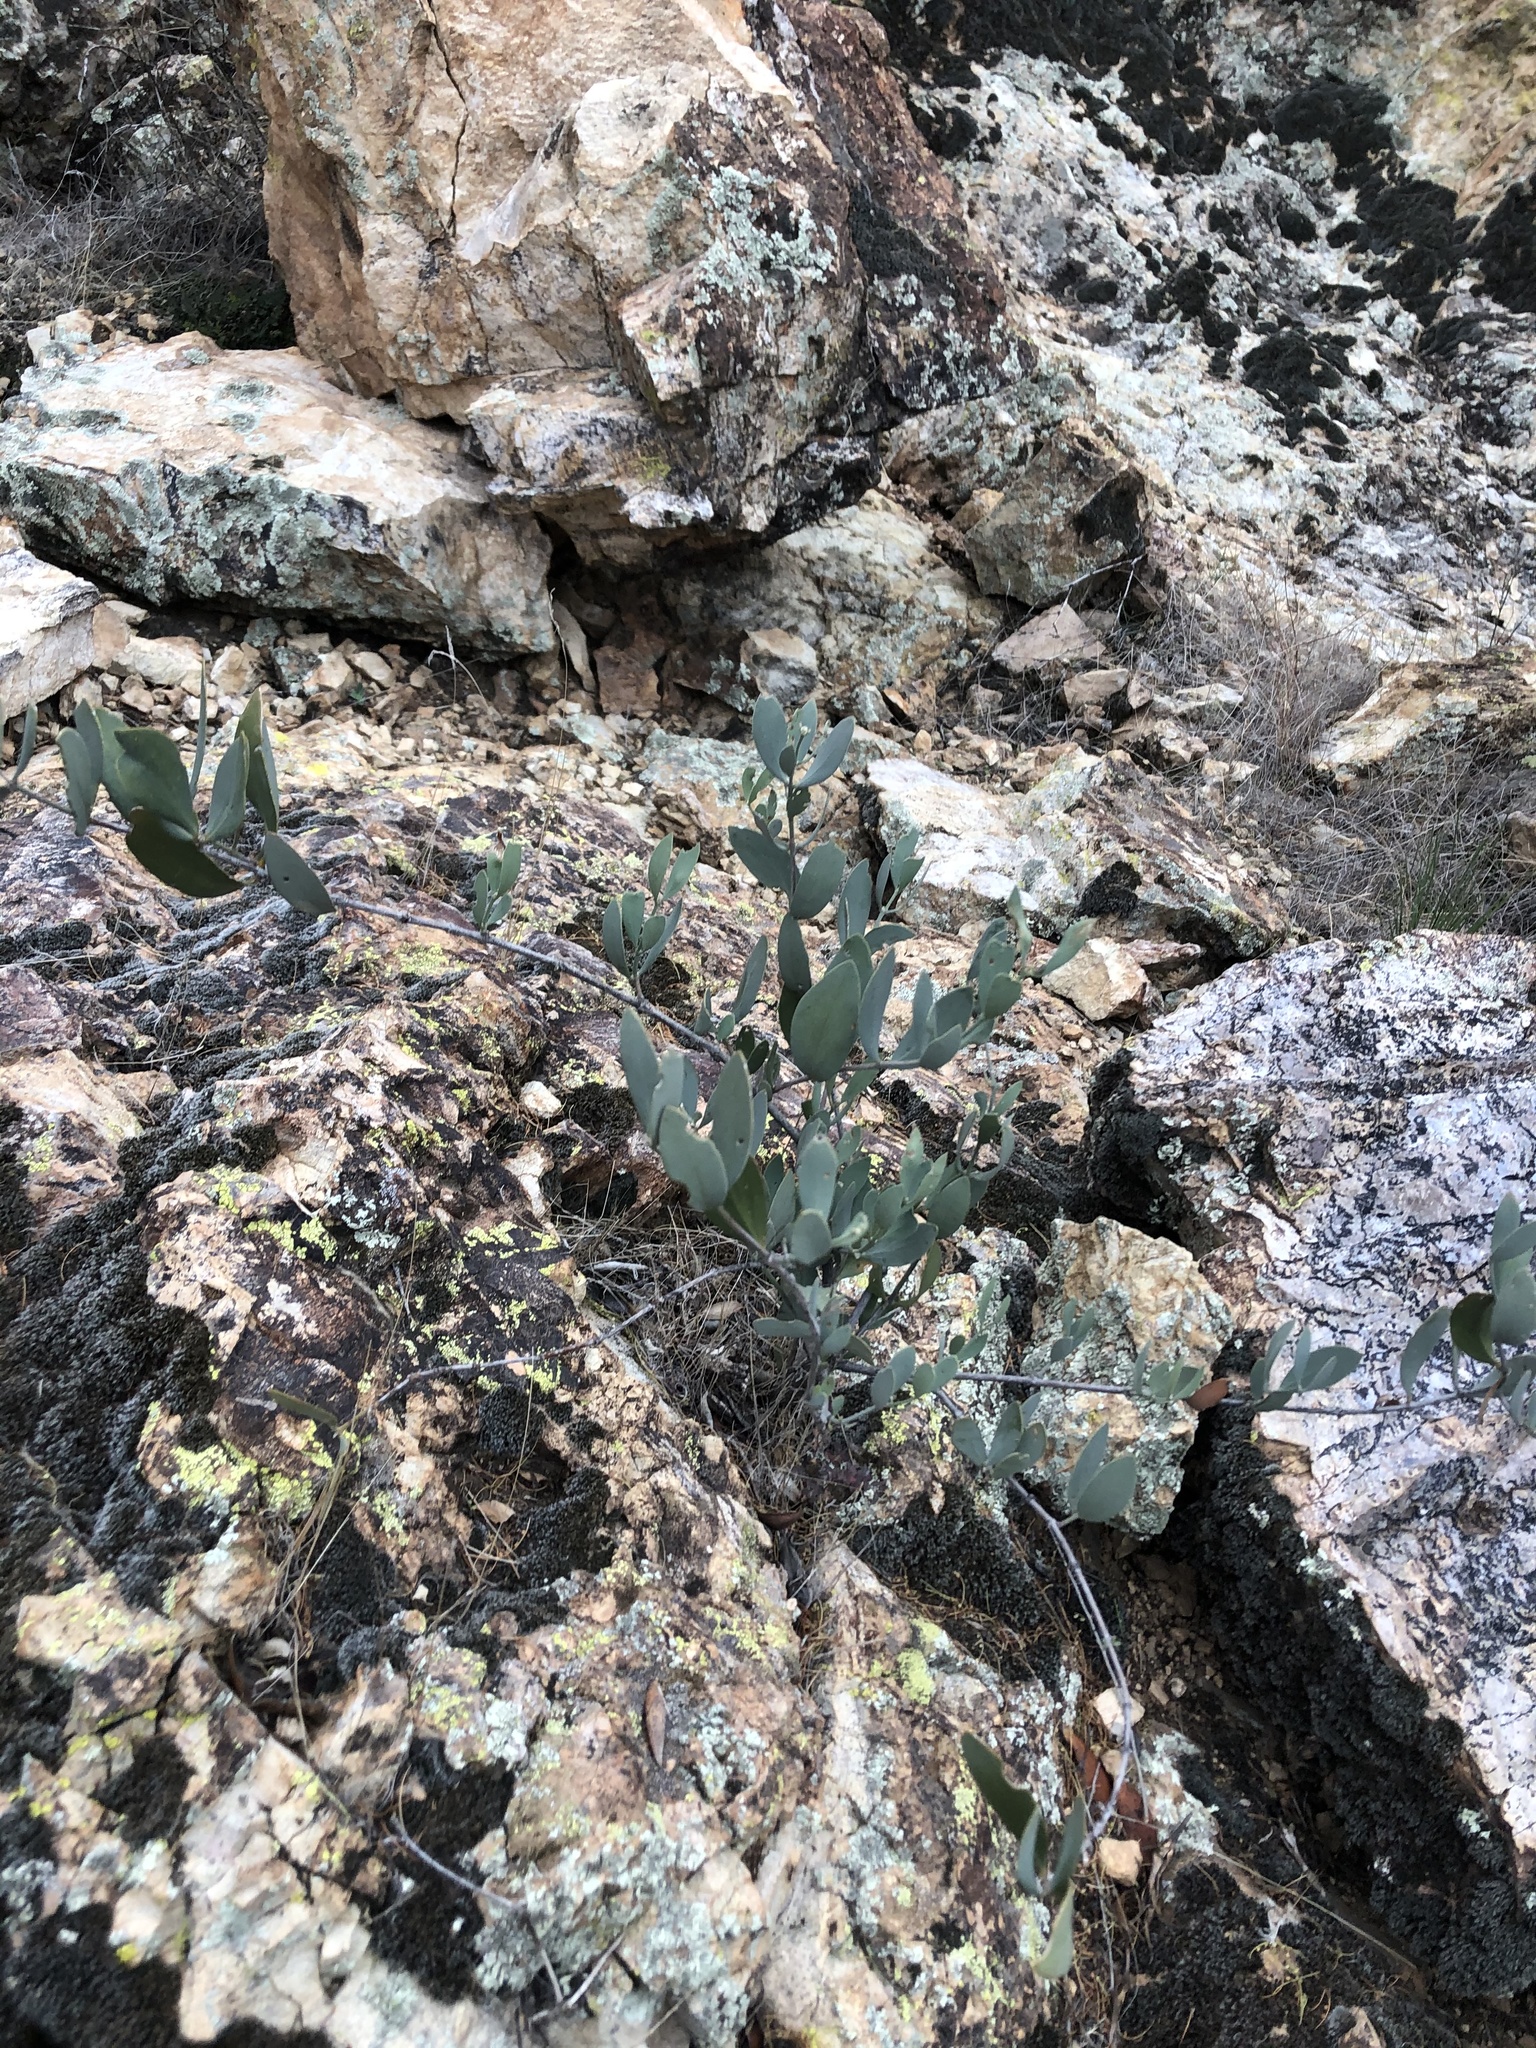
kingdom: Plantae
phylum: Tracheophyta
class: Magnoliopsida
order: Caryophyllales
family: Simmondsiaceae
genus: Simmondsia
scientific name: Simmondsia chinensis
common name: Jojoba
